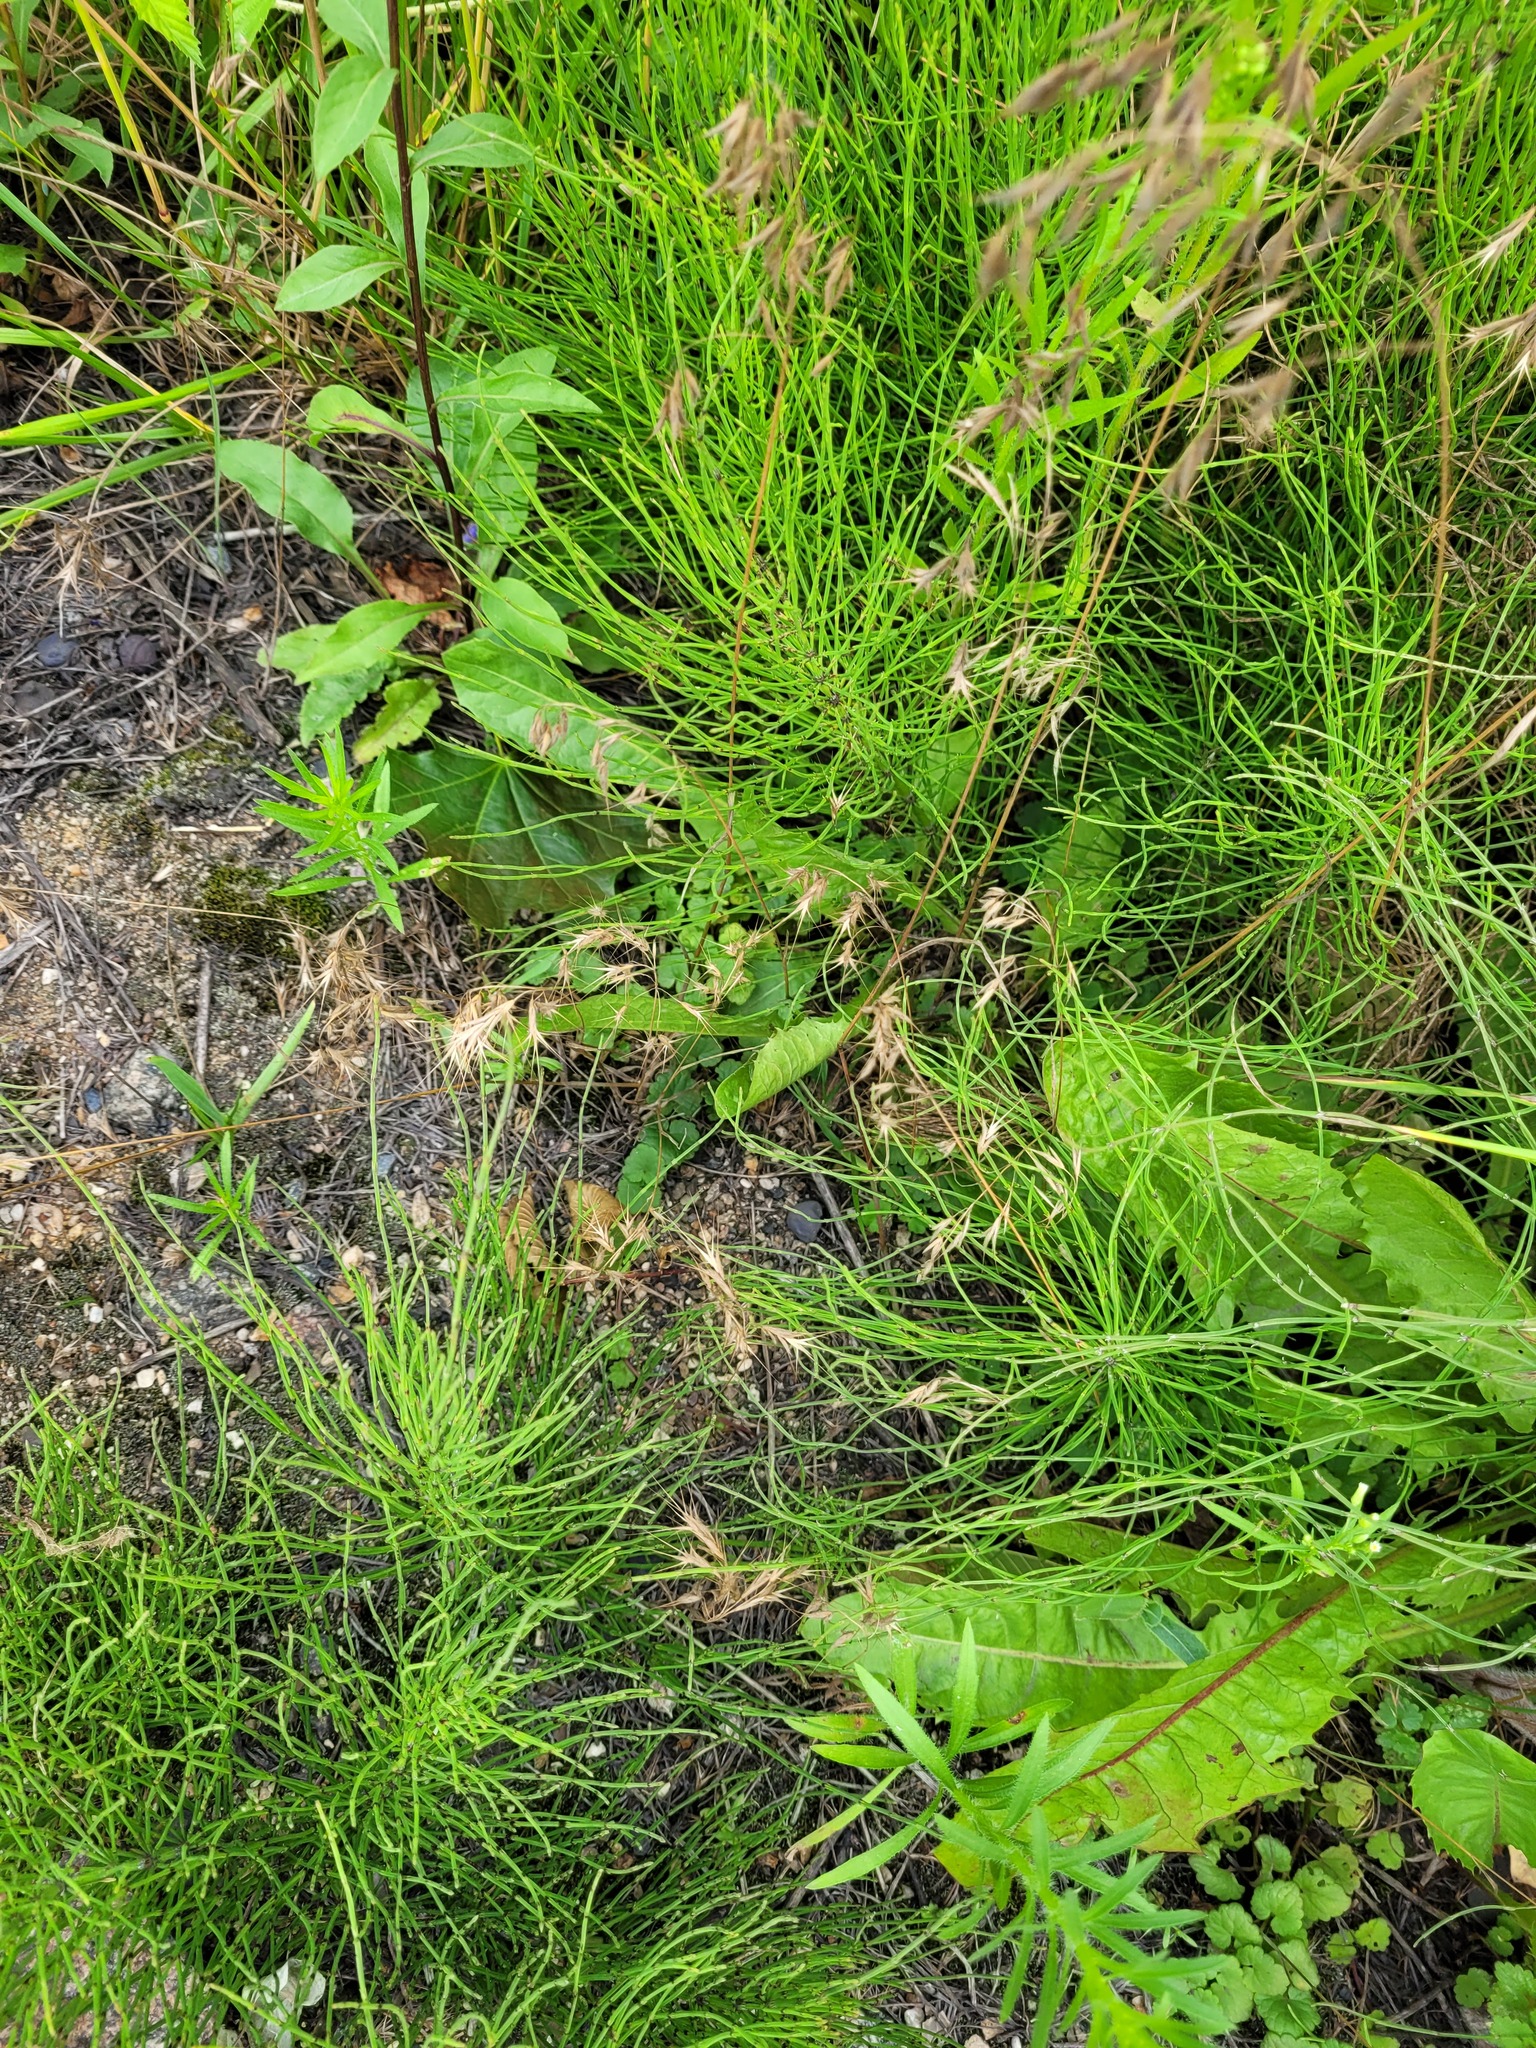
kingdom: Plantae
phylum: Tracheophyta
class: Liliopsida
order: Poales
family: Poaceae
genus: Bromus
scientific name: Bromus tectorum
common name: Cheatgrass
